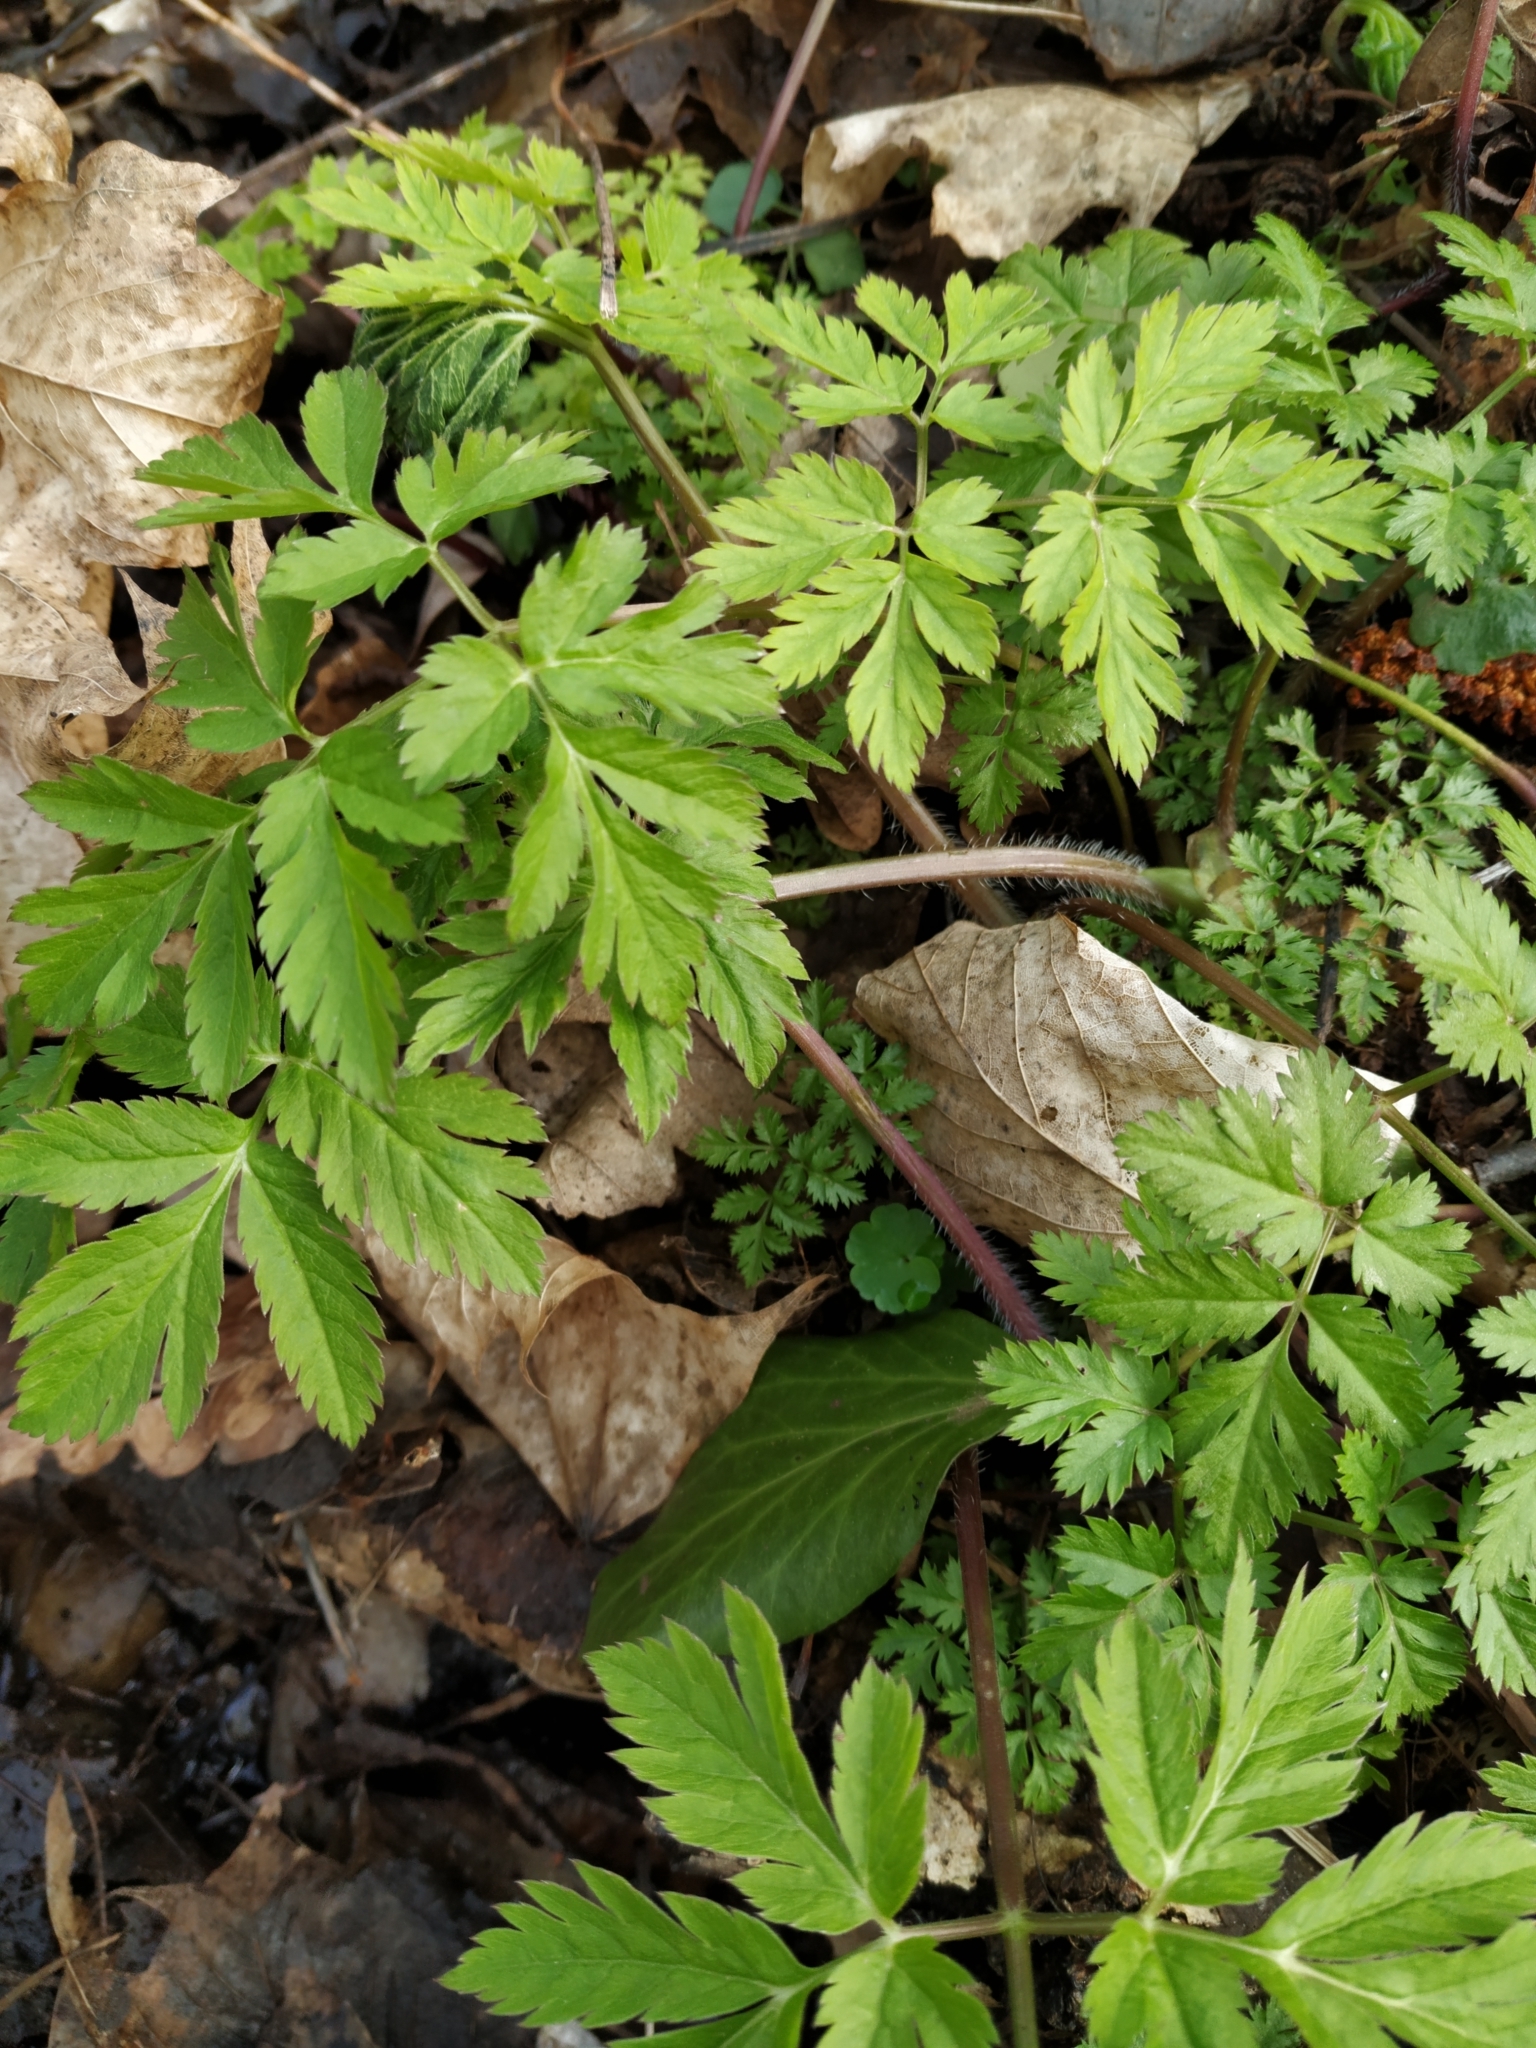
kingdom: Plantae
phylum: Tracheophyta
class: Magnoliopsida
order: Apiales
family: Apiaceae
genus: Chaerophyllum
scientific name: Chaerophyllum hirsutum
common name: Hairy chervil
